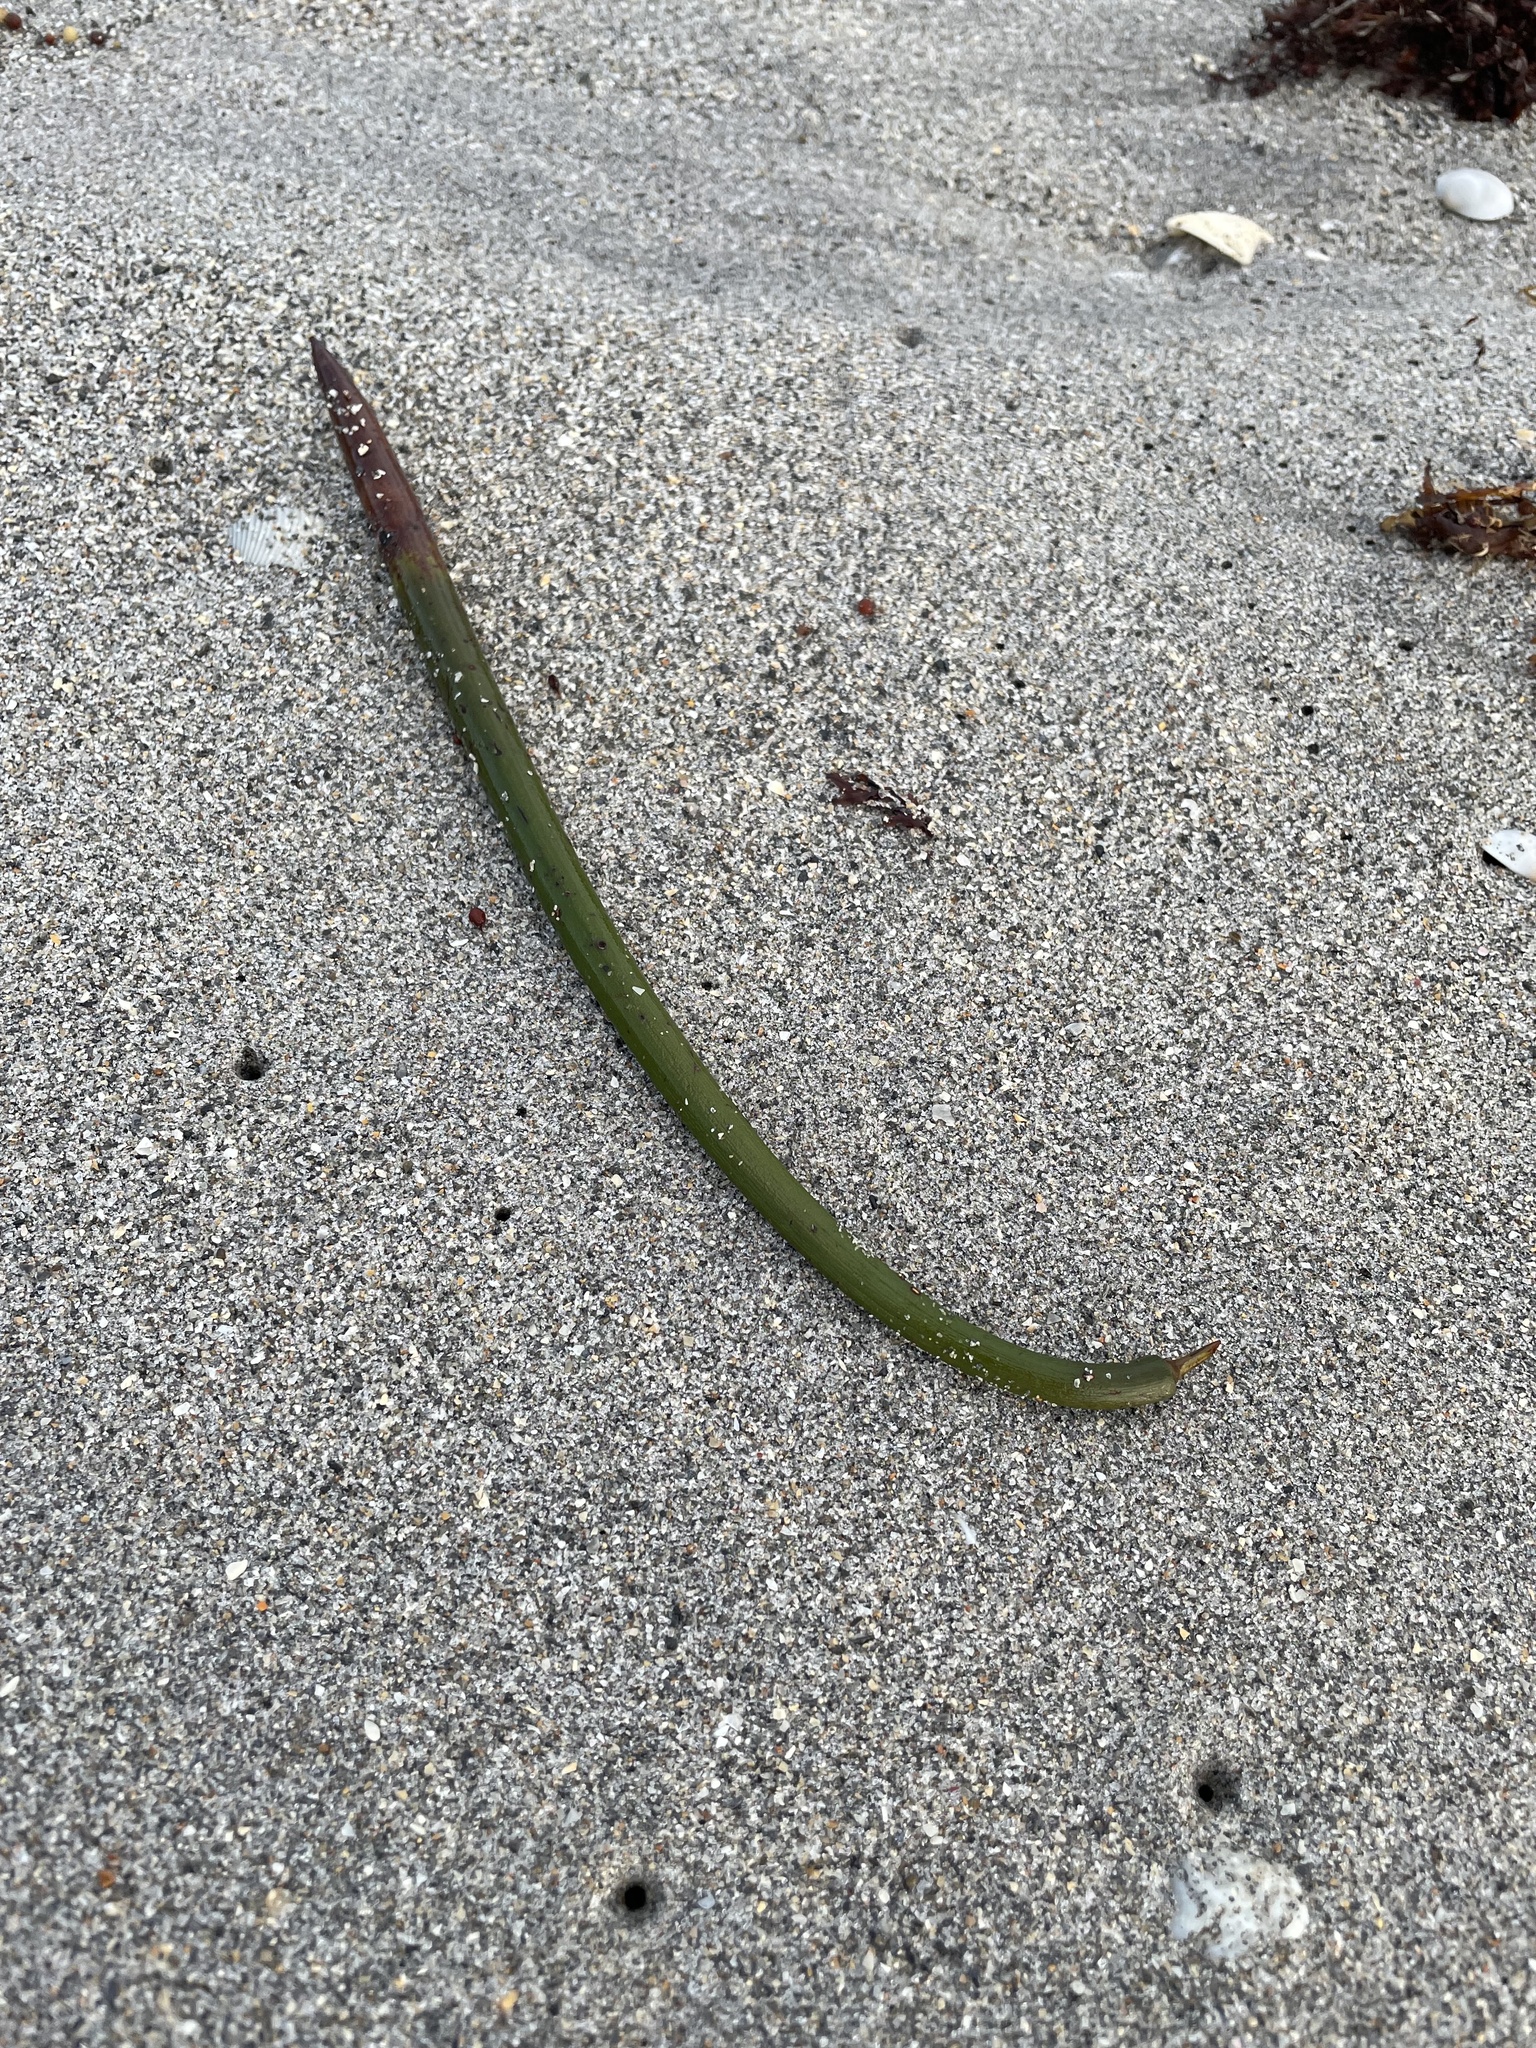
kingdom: Plantae
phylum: Tracheophyta
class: Magnoliopsida
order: Malpighiales
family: Rhizophoraceae
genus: Rhizophora
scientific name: Rhizophora mangle
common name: Red mangrove
